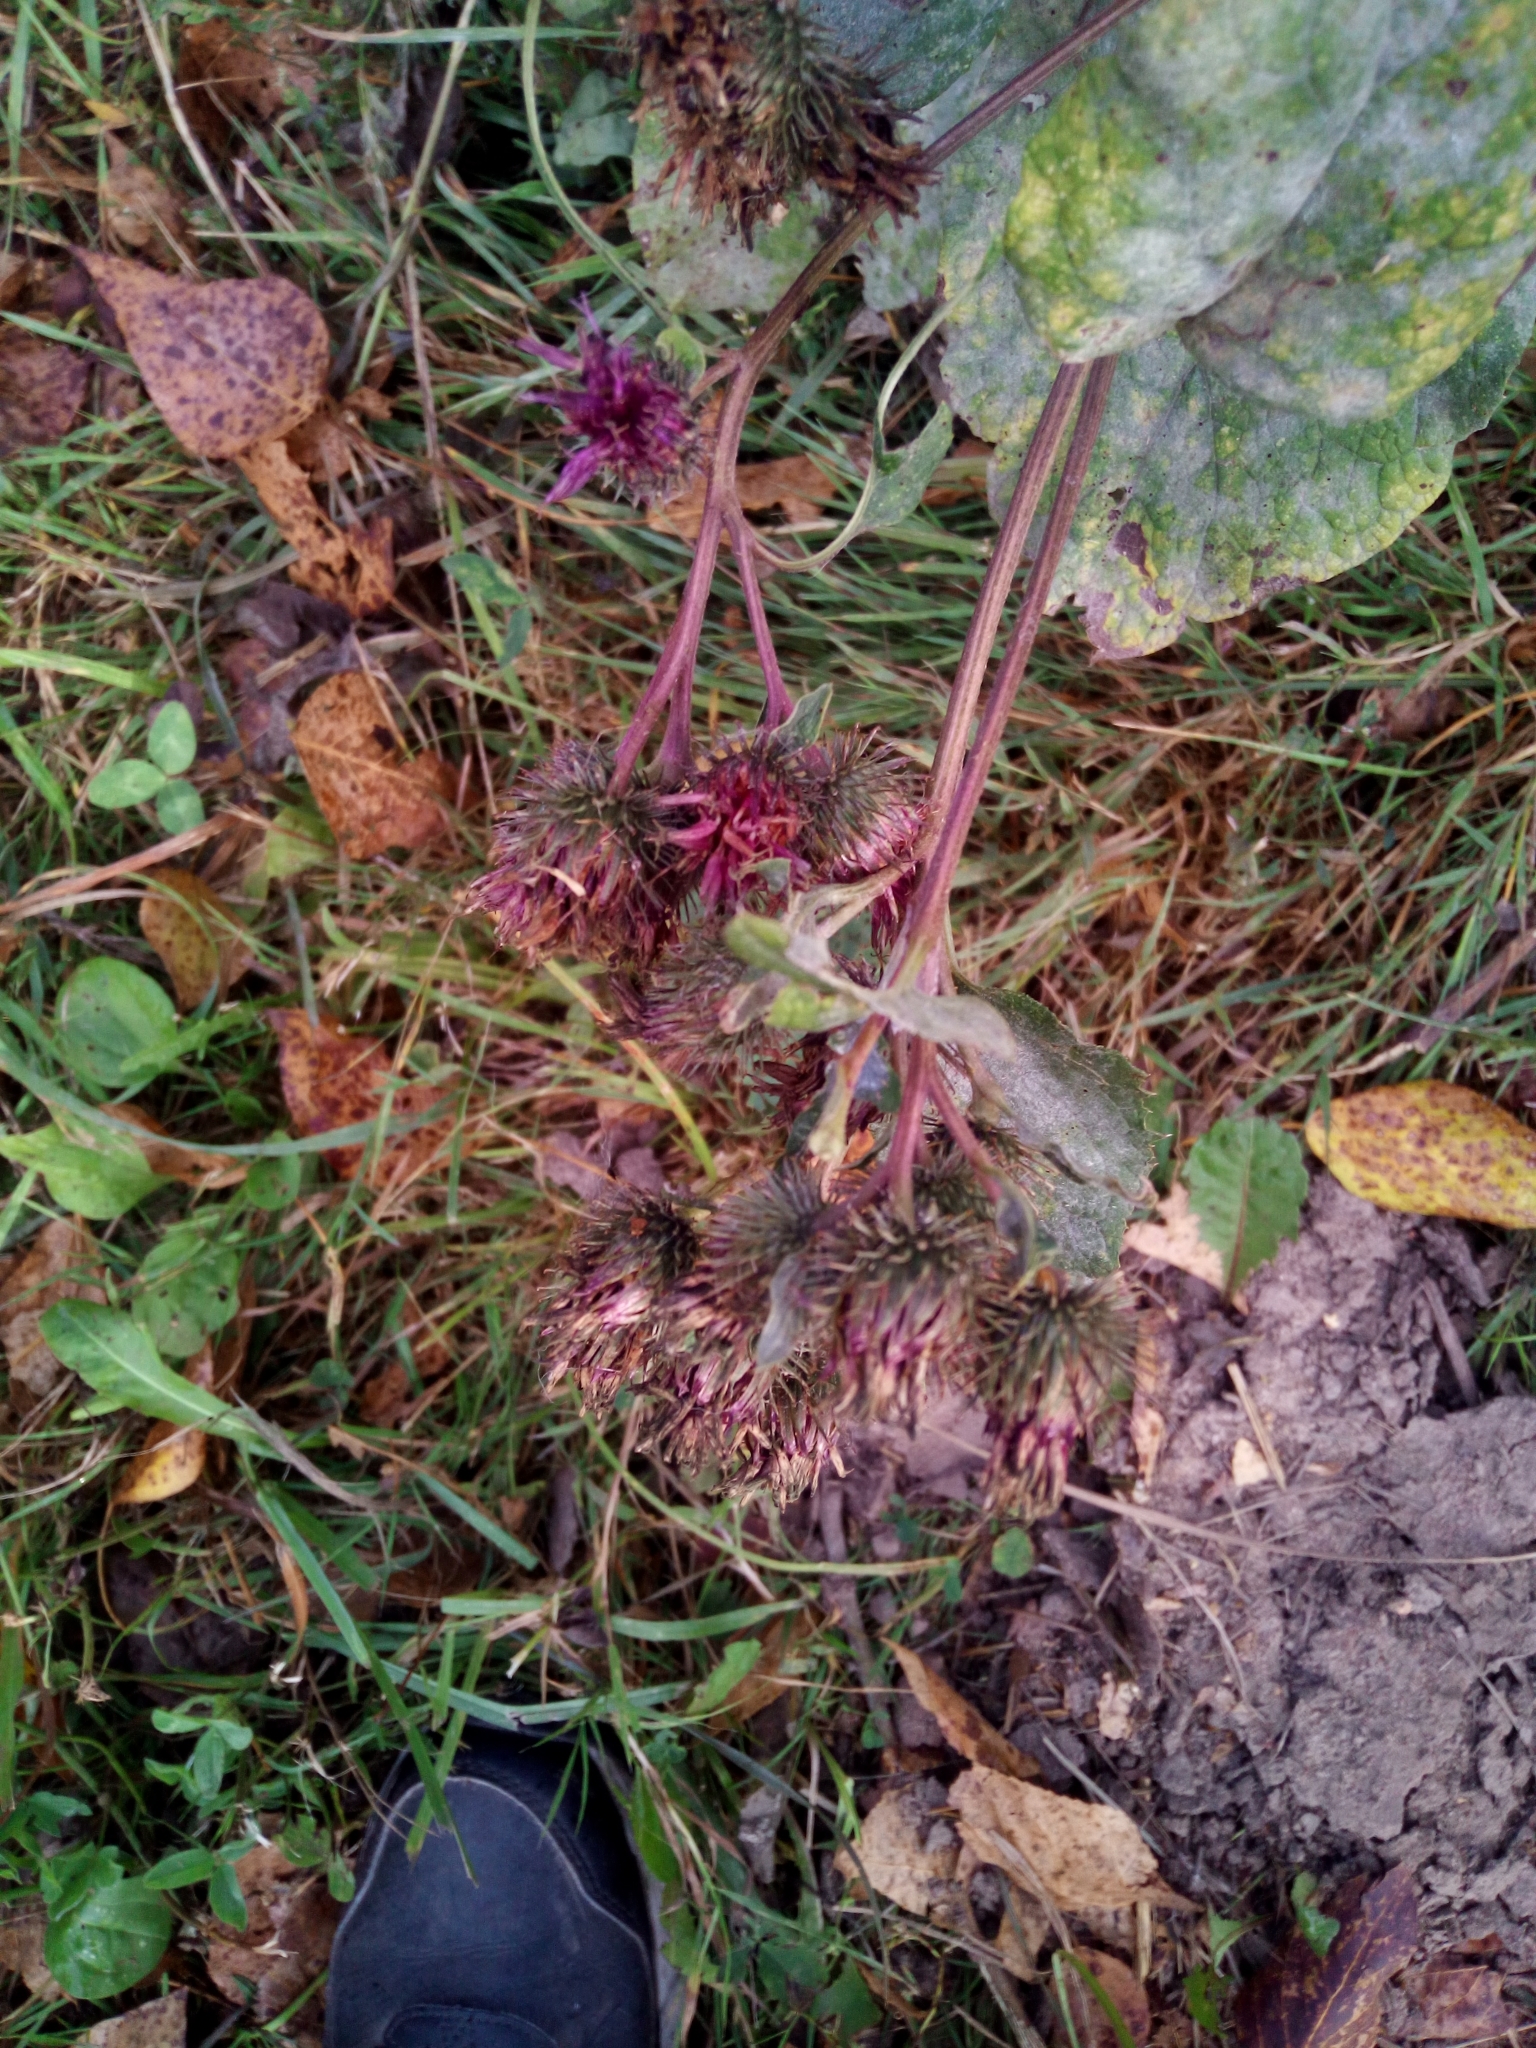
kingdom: Plantae
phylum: Tracheophyta
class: Magnoliopsida
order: Asterales
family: Asteraceae
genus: Arctium
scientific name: Arctium tomentosum
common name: Woolly burdock
